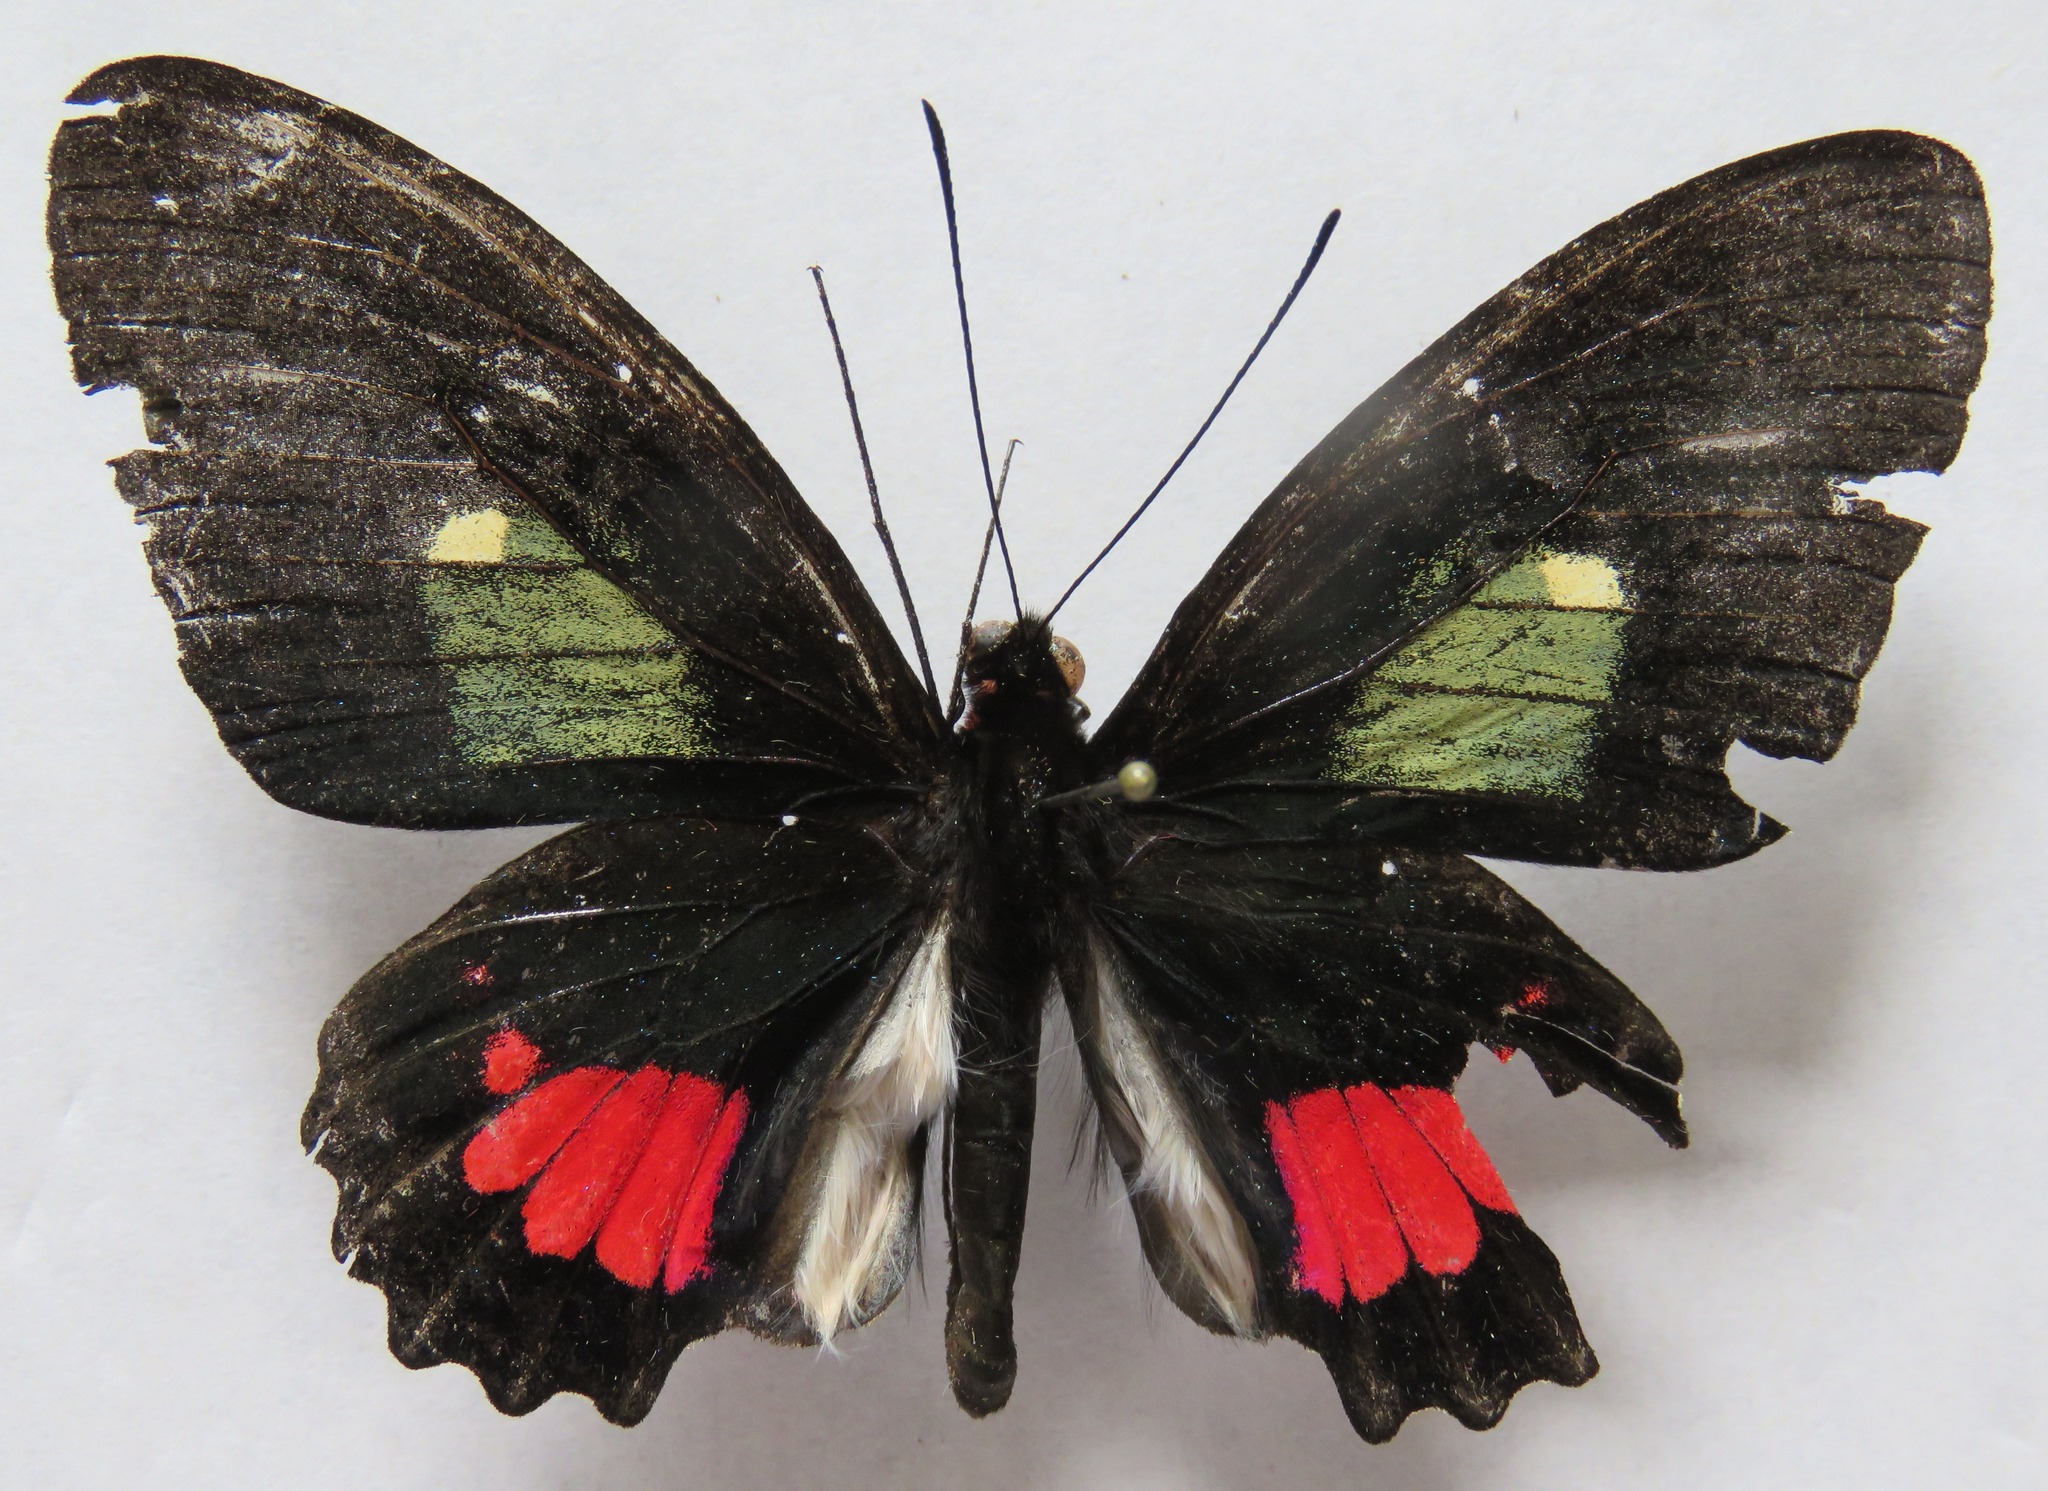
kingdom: Animalia
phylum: Arthropoda
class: Insecta
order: Lepidoptera
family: Papilionidae
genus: Parides
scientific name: Parides panares
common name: Wedge-spotted cattleheart
